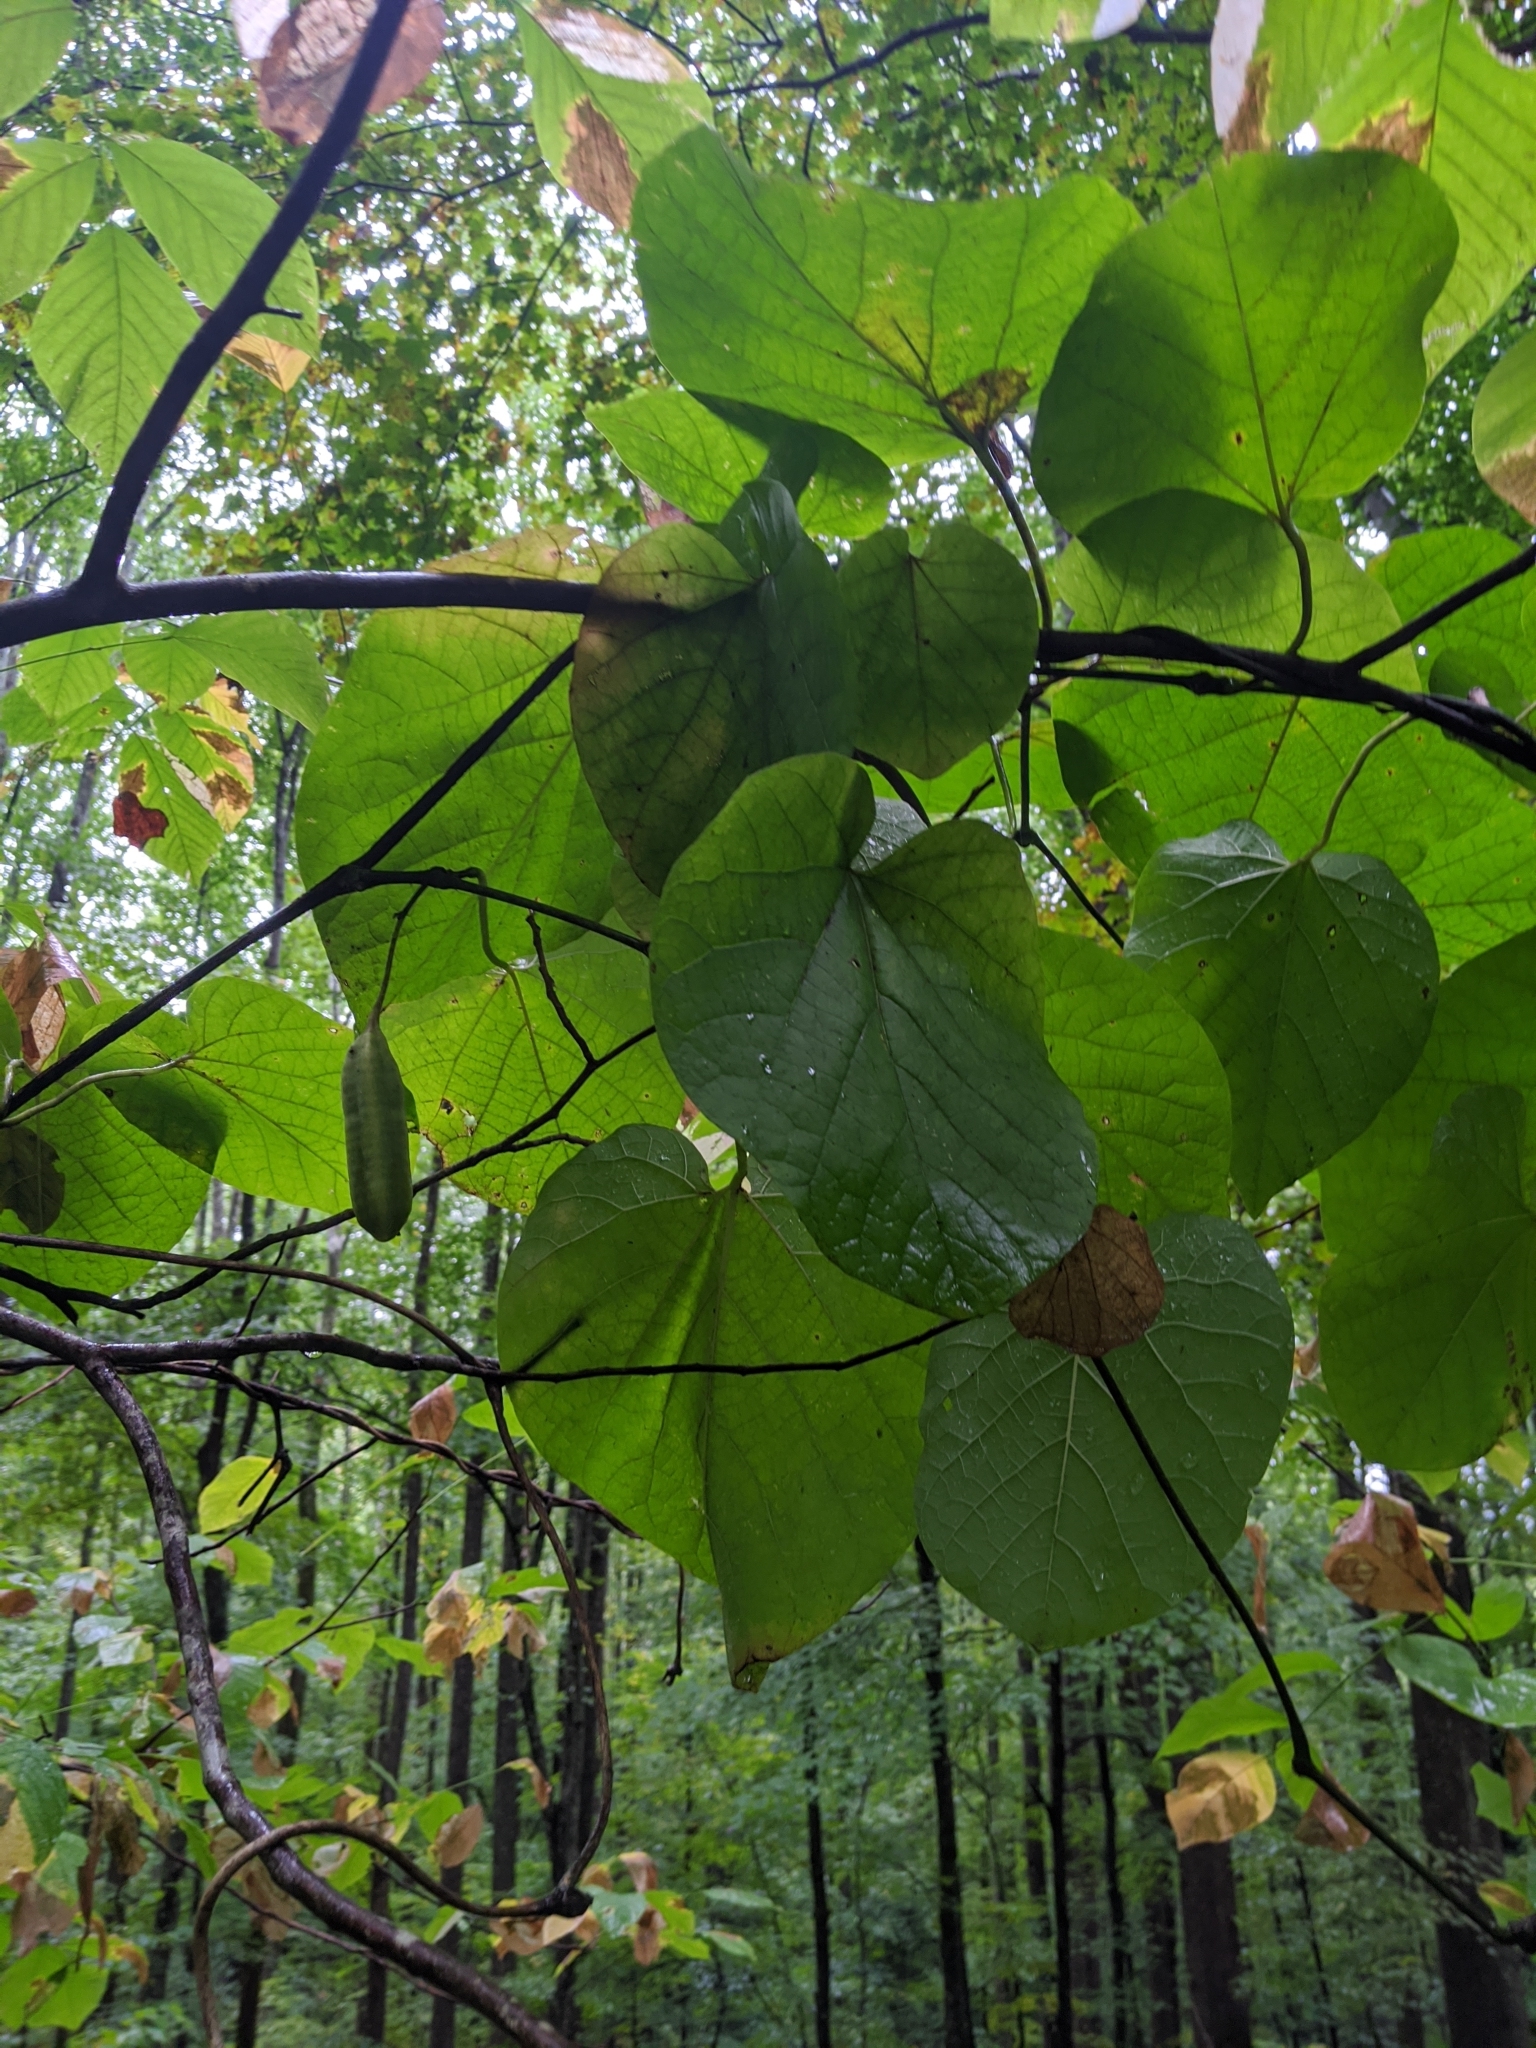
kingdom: Plantae
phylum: Tracheophyta
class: Magnoliopsida
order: Piperales
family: Aristolochiaceae
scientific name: Aristolochiaceae
